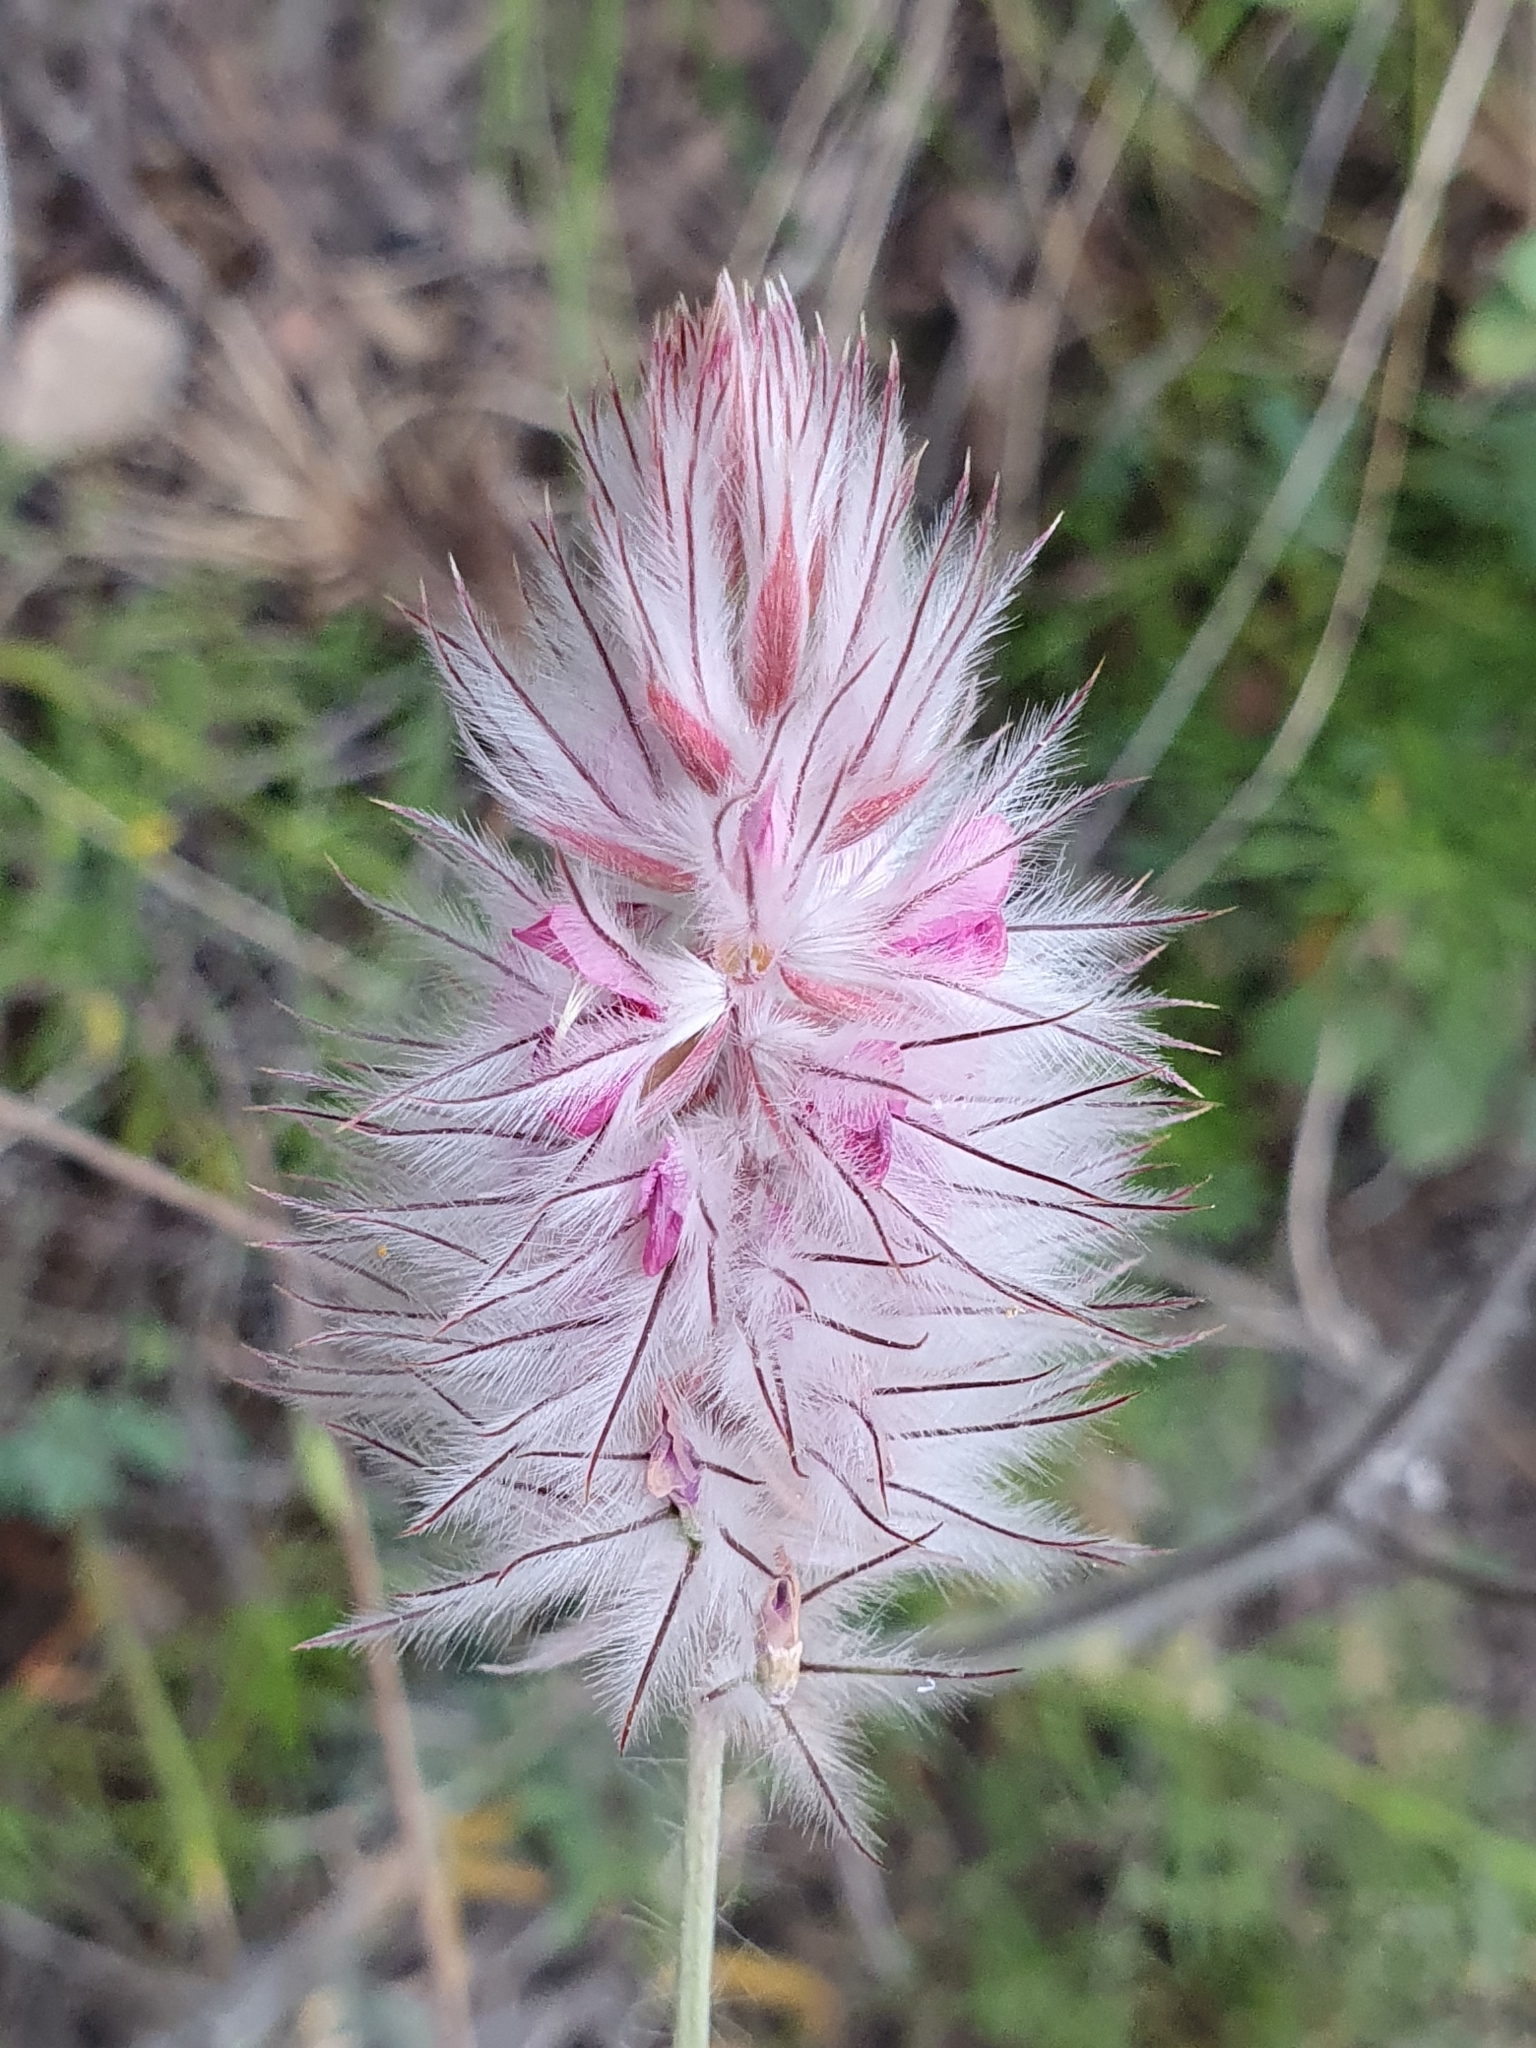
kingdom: Plantae
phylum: Tracheophyta
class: Magnoliopsida
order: Fabales
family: Fabaceae
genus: Ebenus
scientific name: Ebenus pinnata
